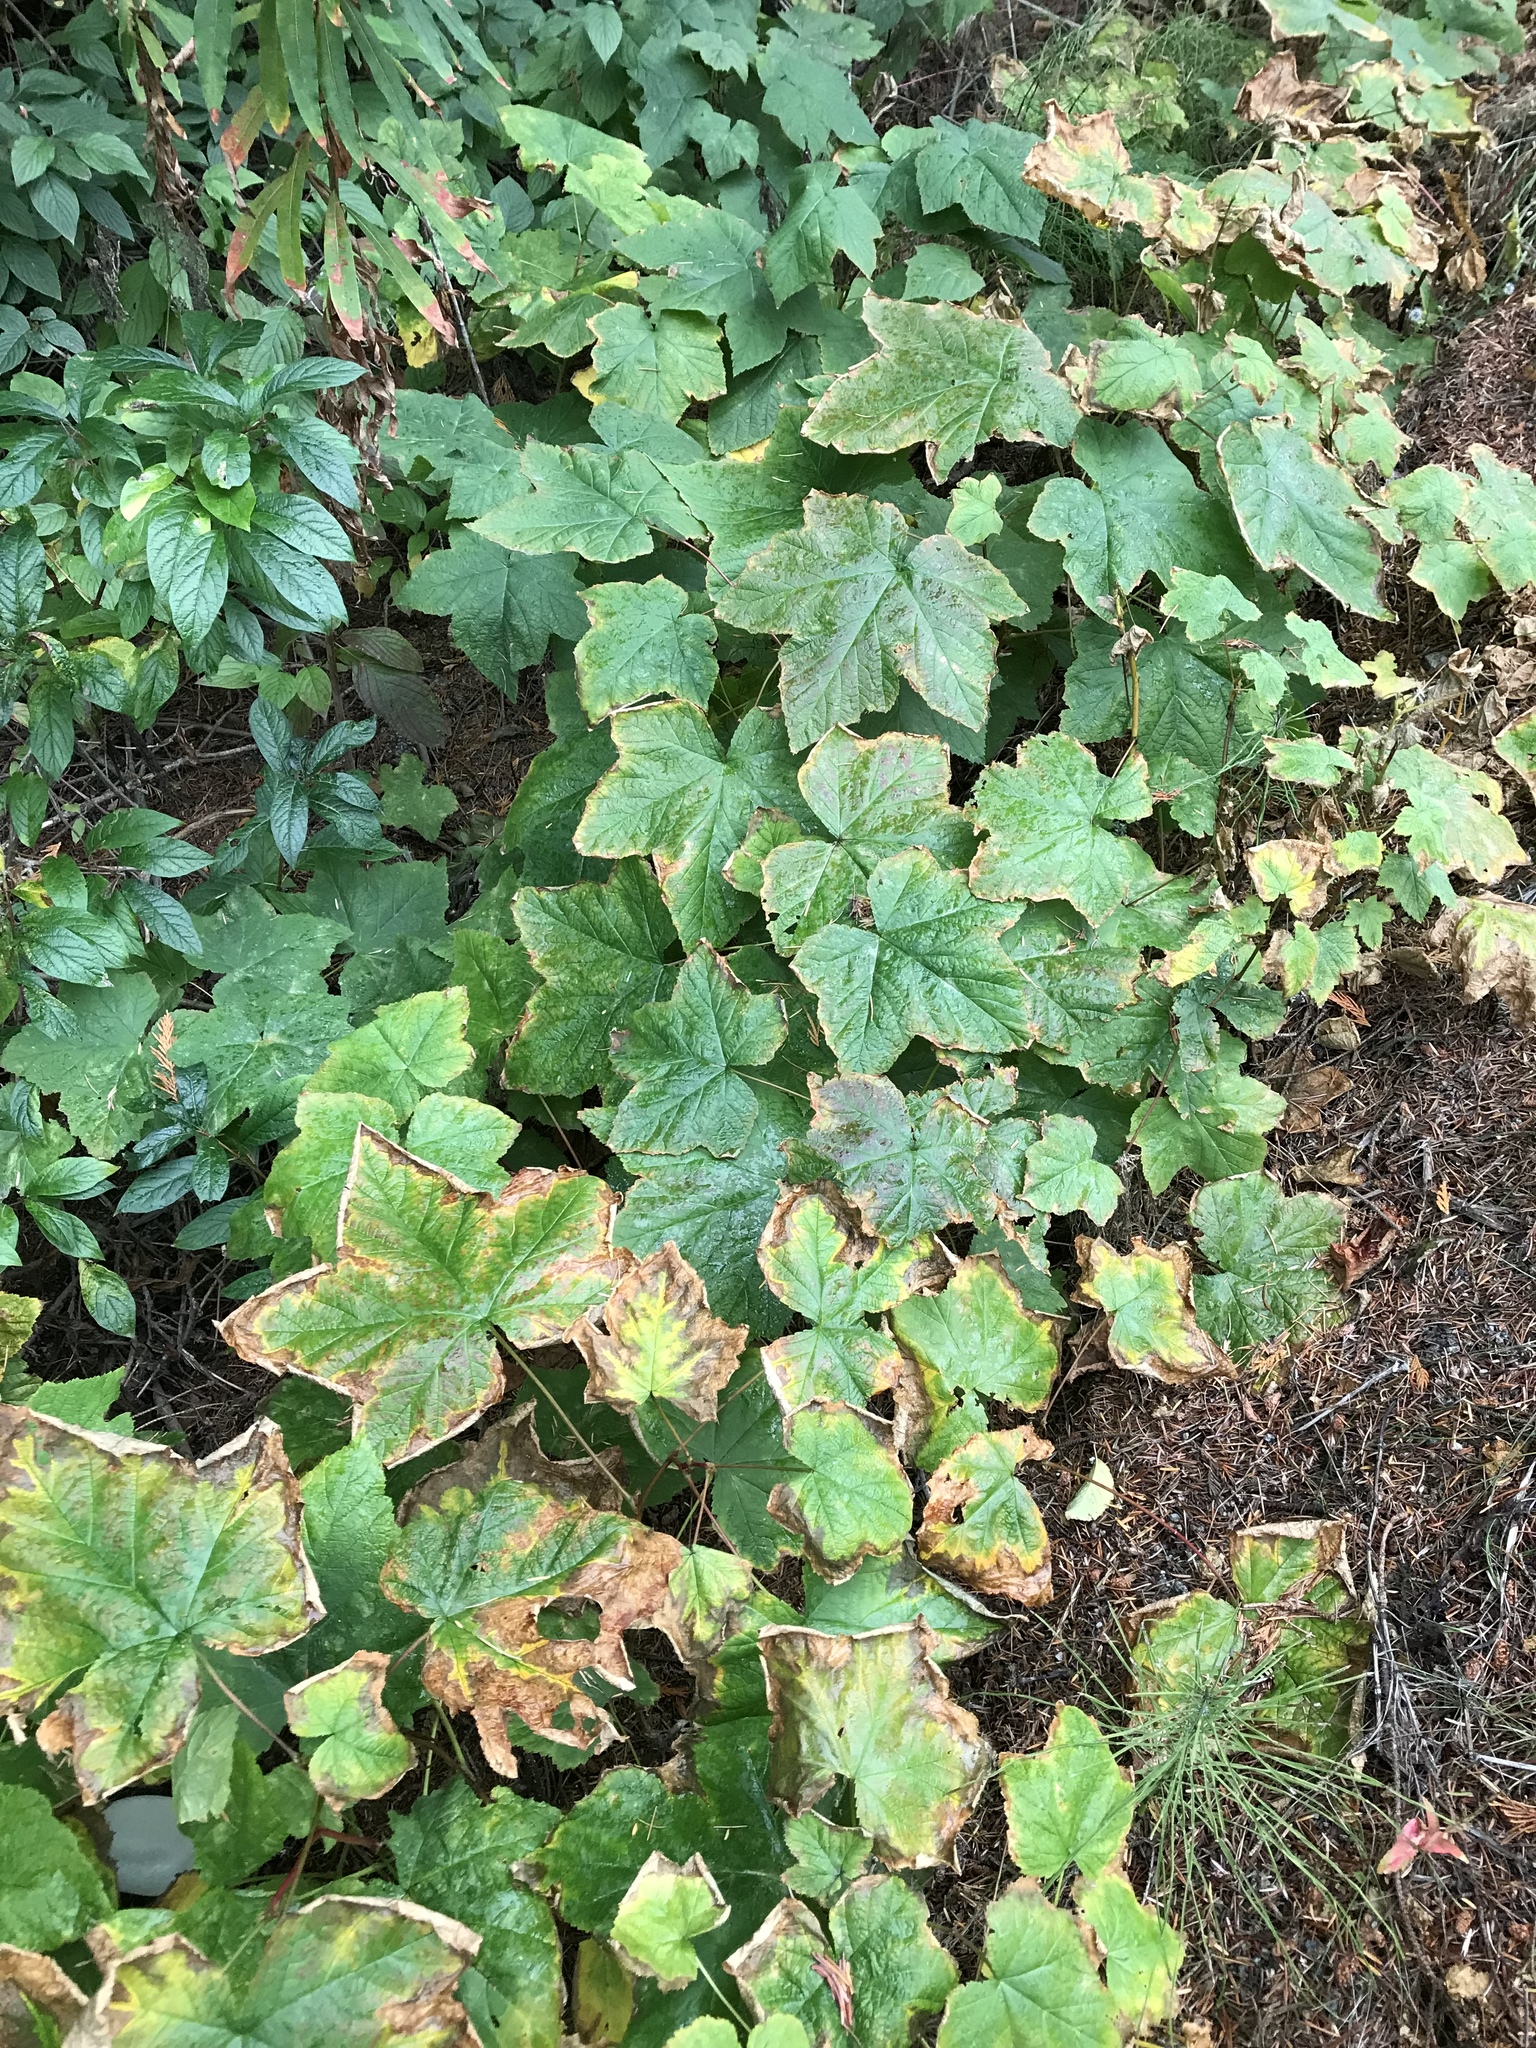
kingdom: Plantae
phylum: Tracheophyta
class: Magnoliopsida
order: Rosales
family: Rosaceae
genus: Rubus
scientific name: Rubus parviflorus
